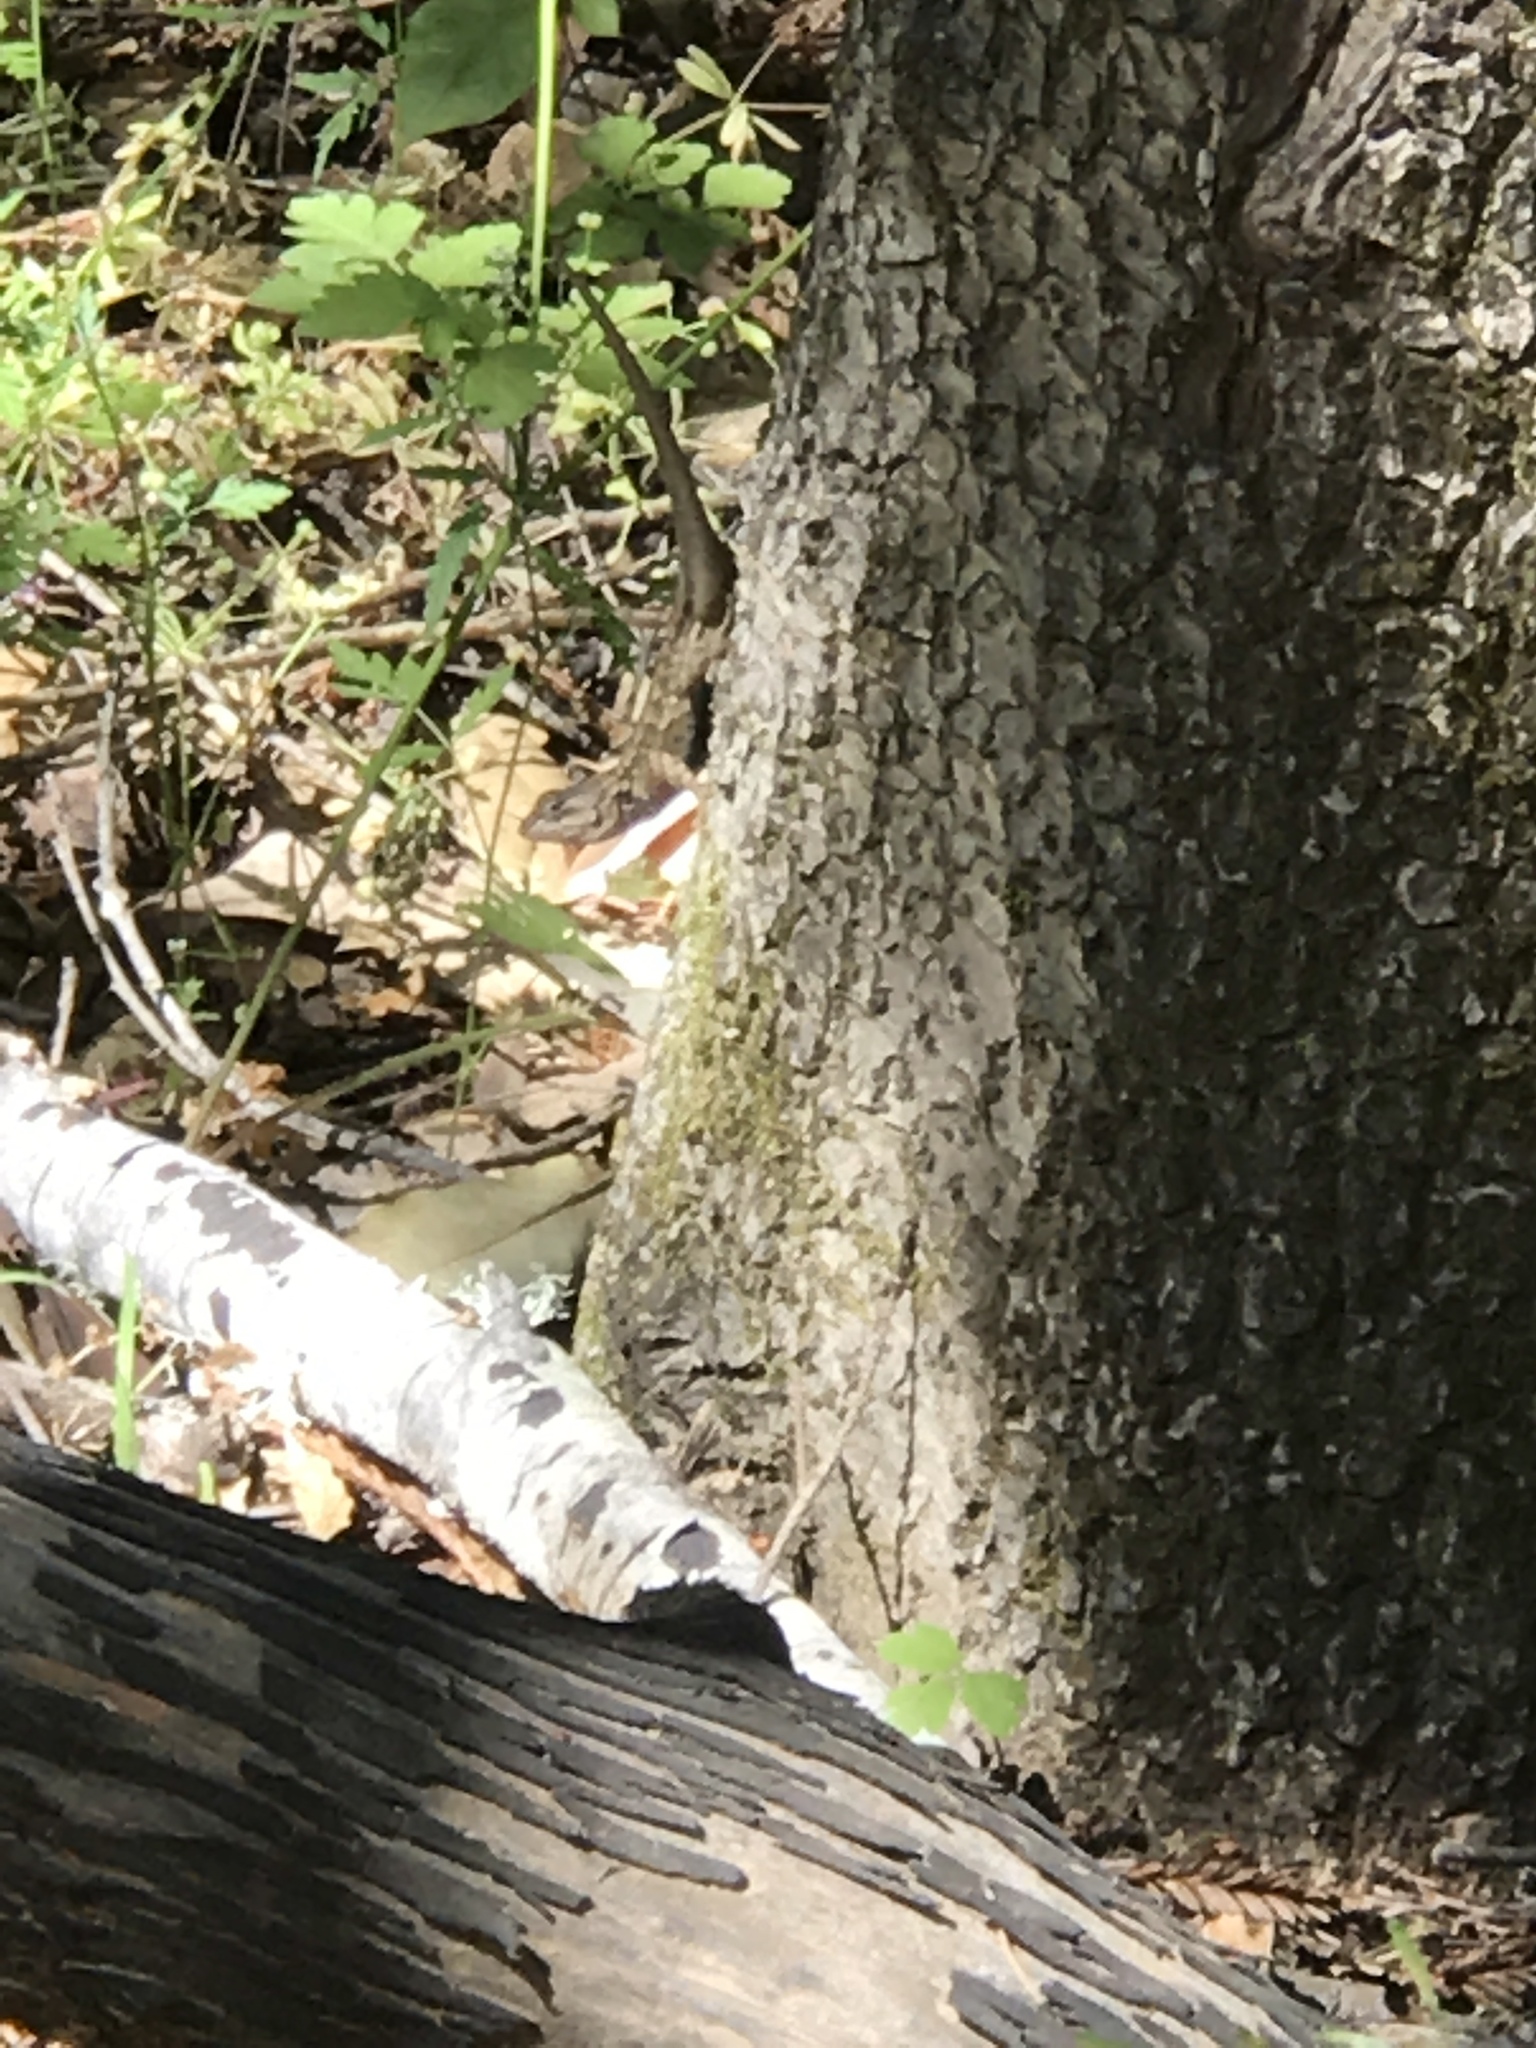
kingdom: Animalia
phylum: Chordata
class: Squamata
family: Phrynosomatidae
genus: Sceloporus
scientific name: Sceloporus occidentalis
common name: Western fence lizard
